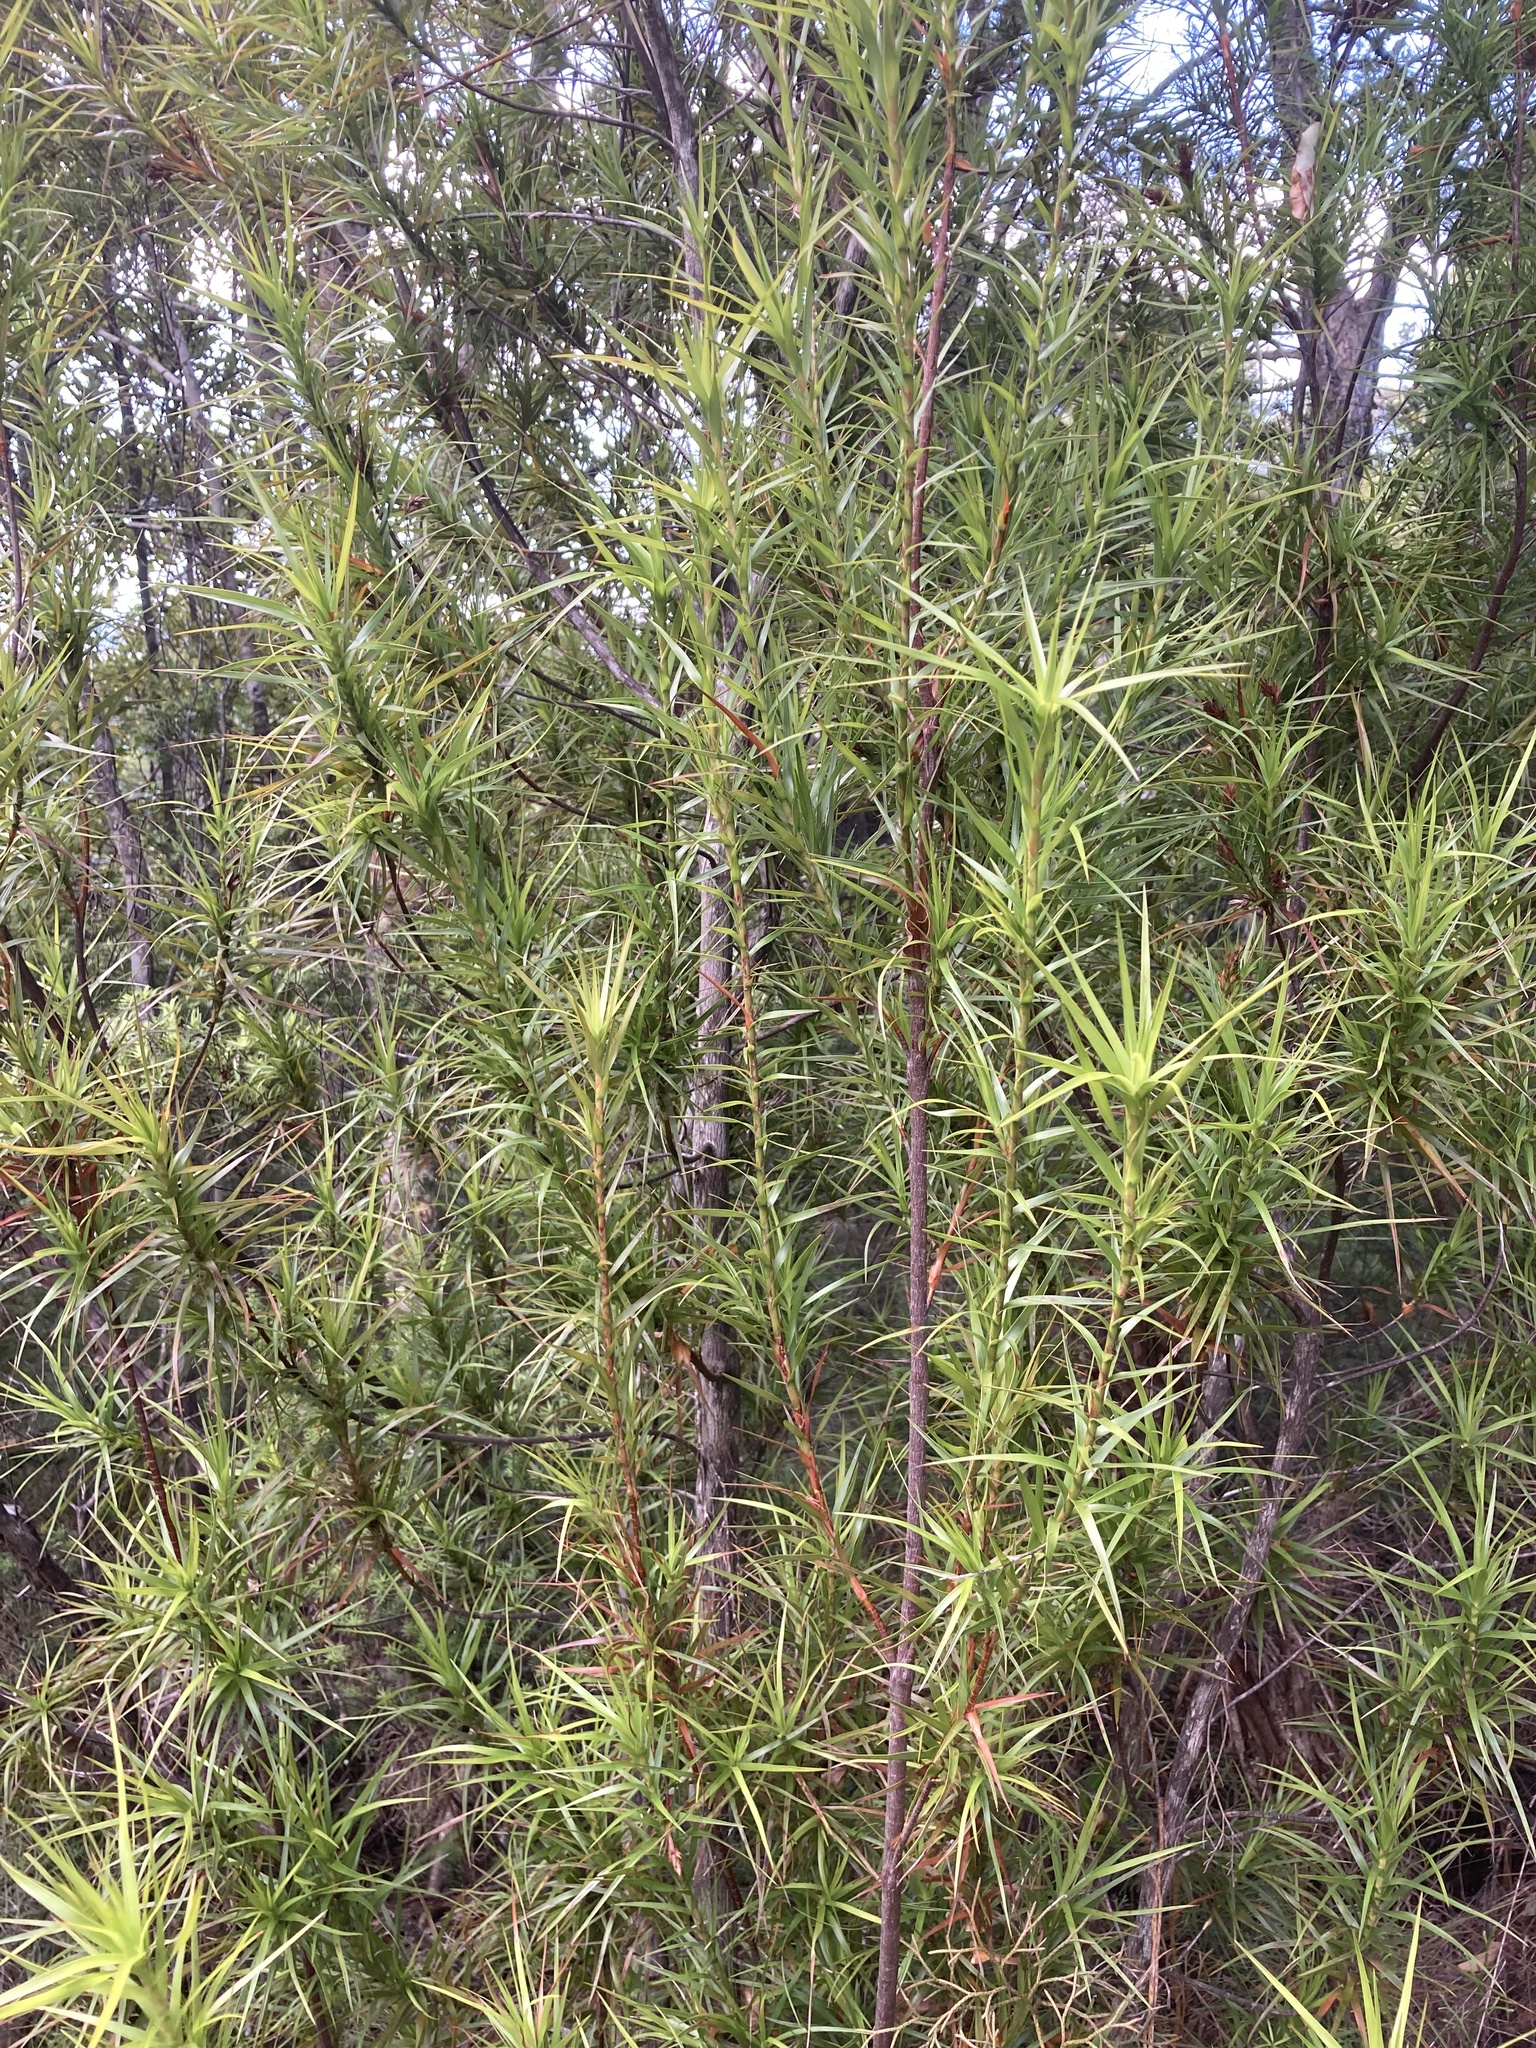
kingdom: Plantae
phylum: Tracheophyta
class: Magnoliopsida
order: Ericales
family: Ericaceae
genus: Dracophyllum
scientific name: Dracophyllum sinclairii
